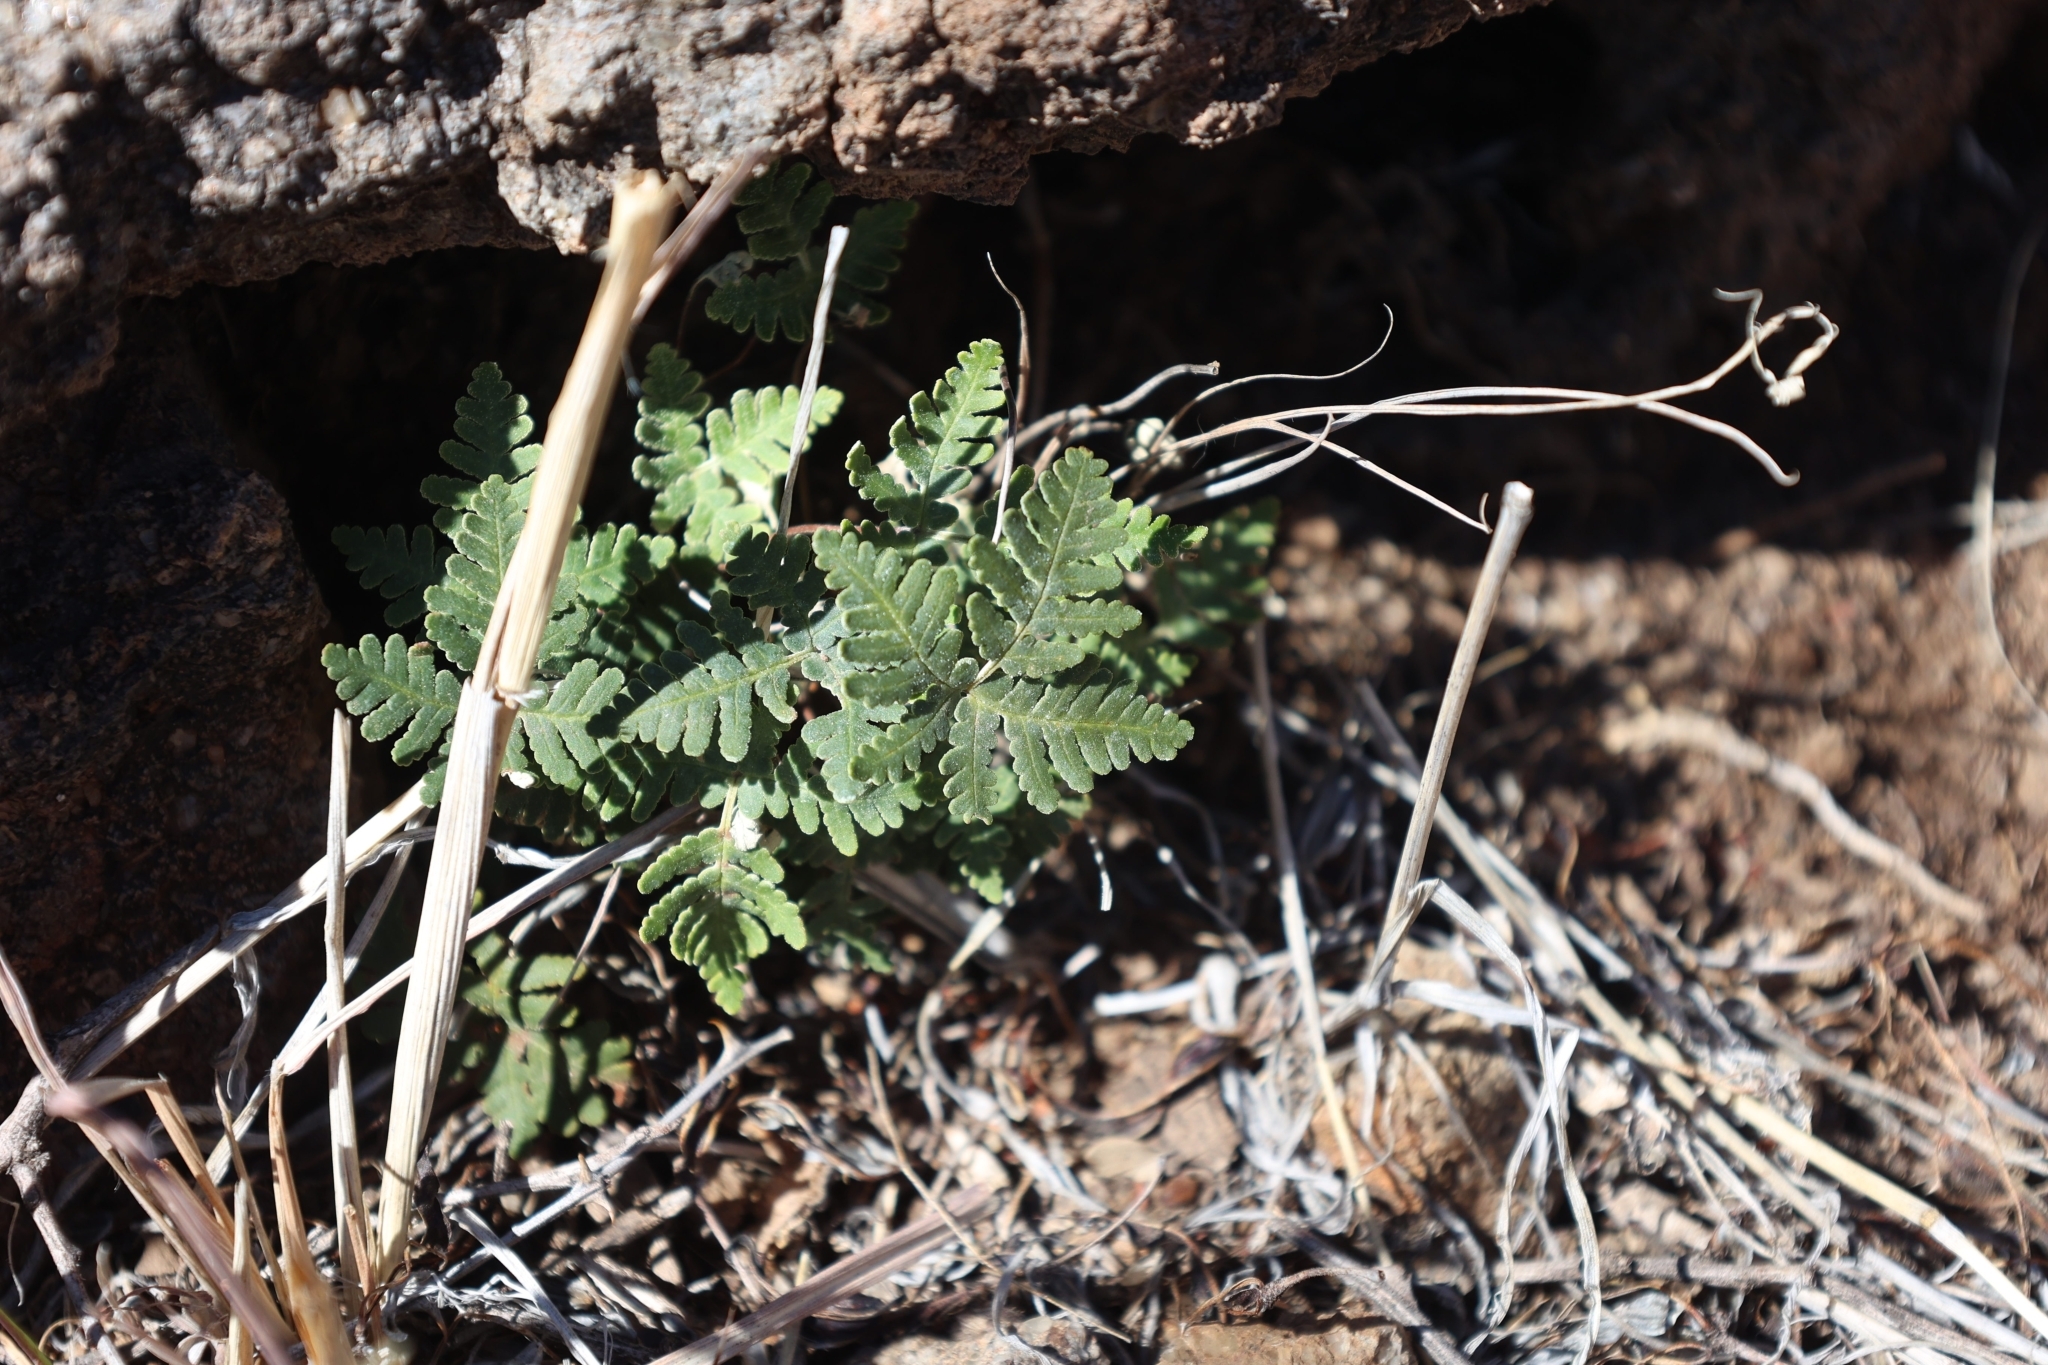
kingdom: Plantae
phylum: Tracheophyta
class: Polypodiopsida
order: Polypodiales
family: Pteridaceae
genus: Notholaena
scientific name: Notholaena standleyi
